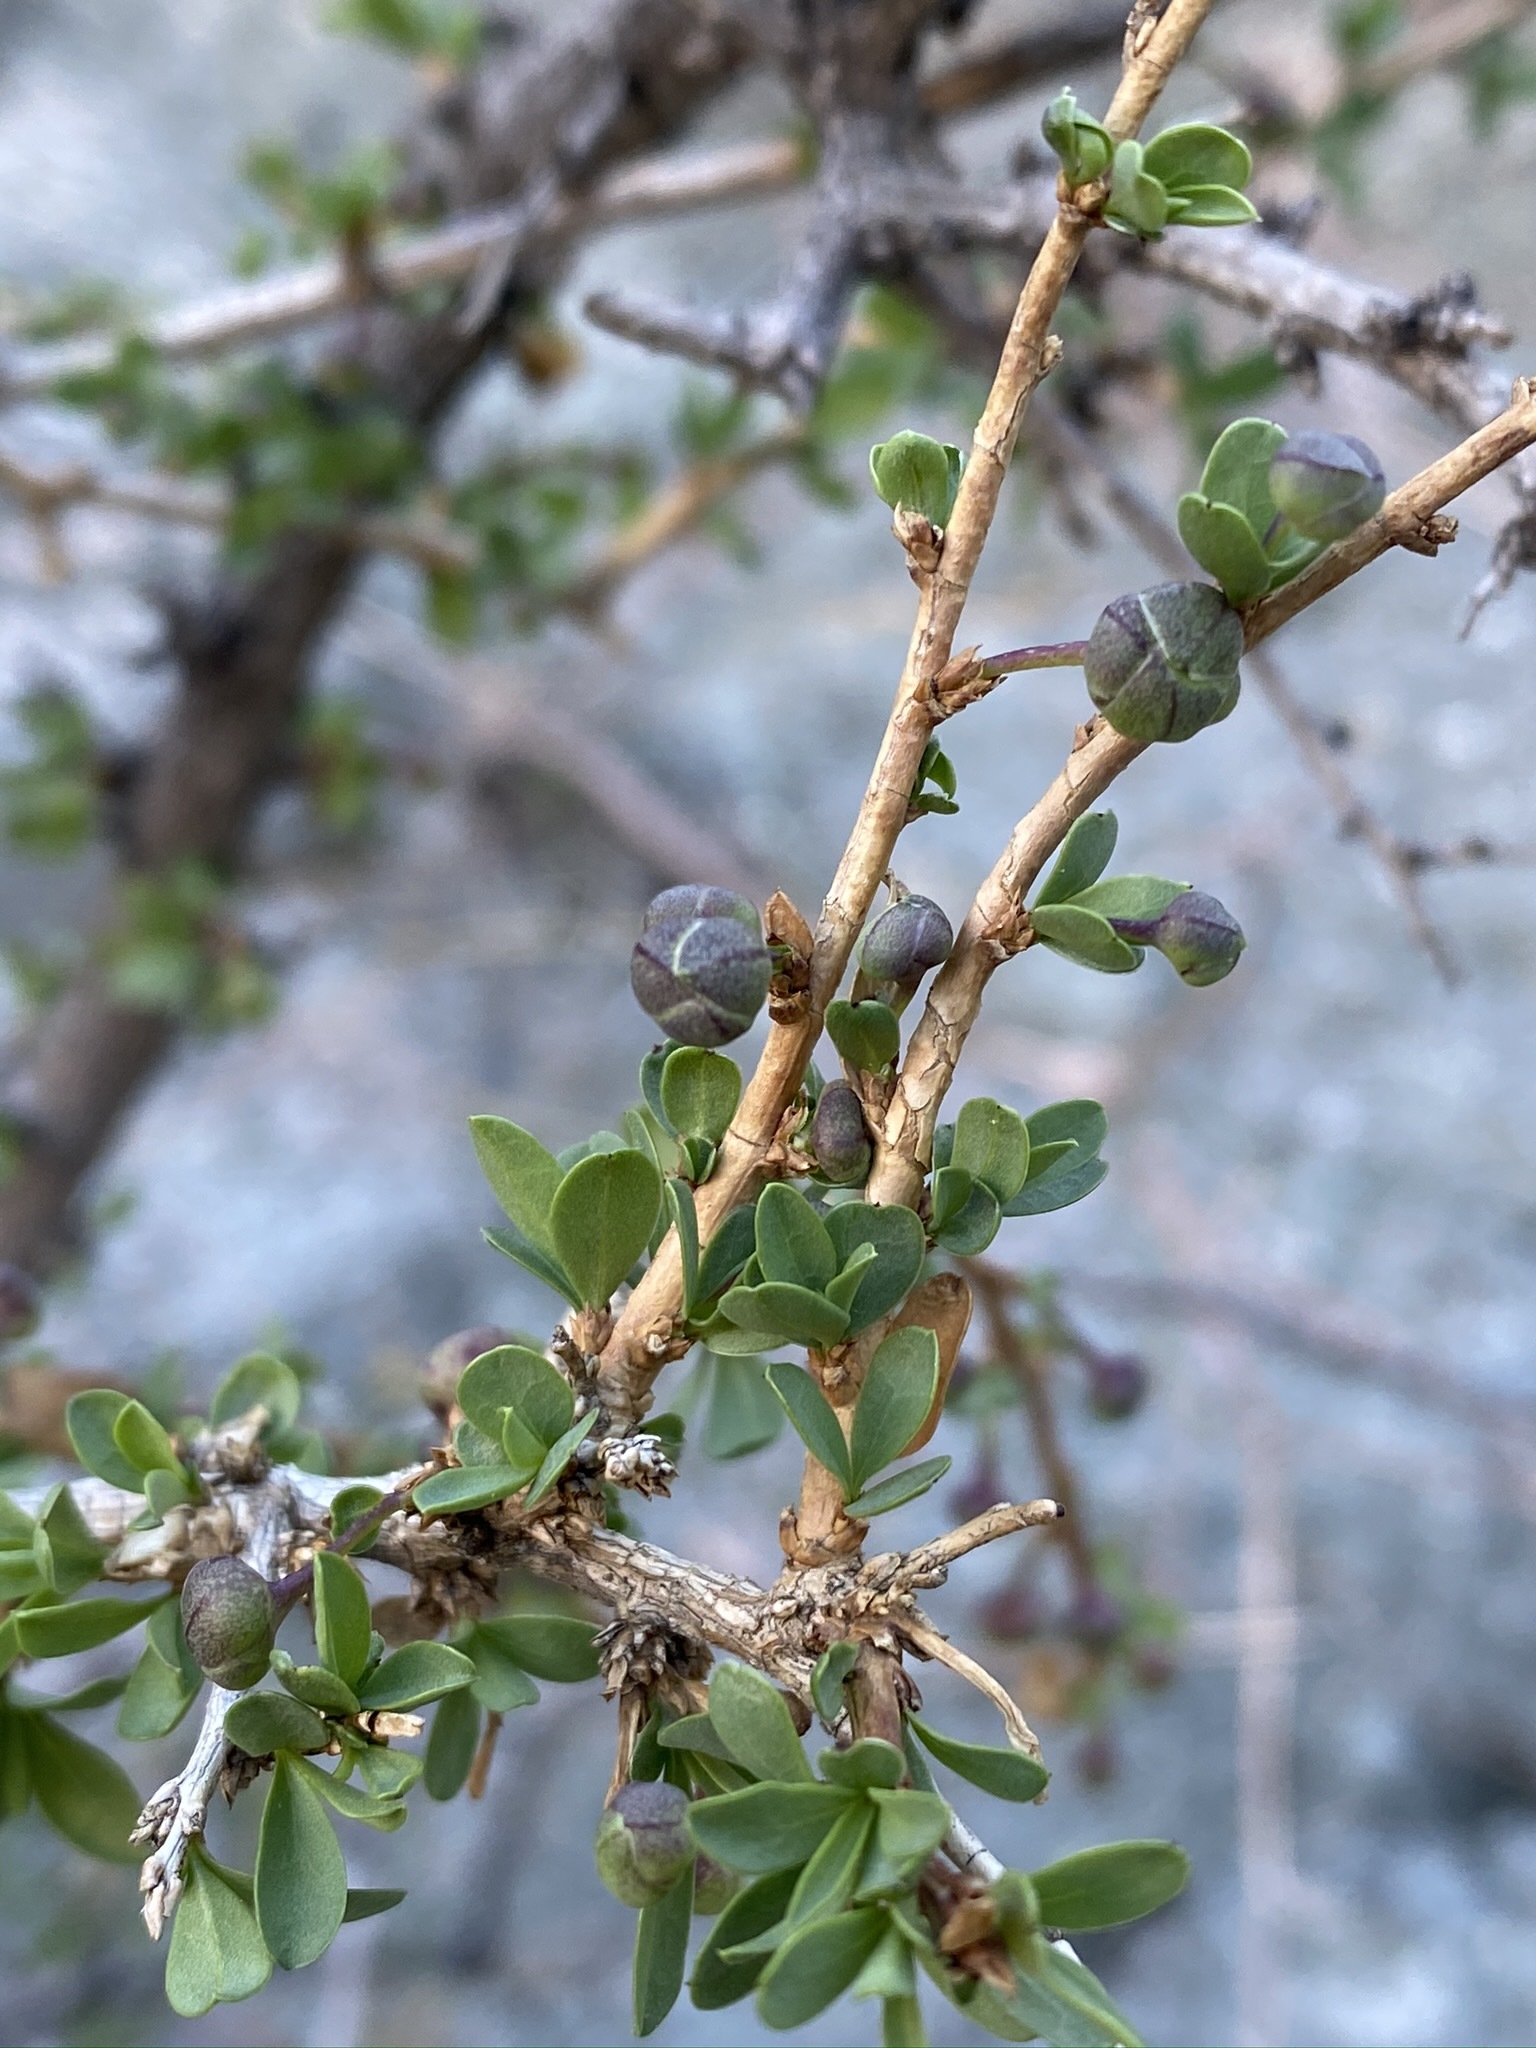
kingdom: Plantae
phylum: Tracheophyta
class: Magnoliopsida
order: Crossosomatales
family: Crossosomataceae
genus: Crossosoma
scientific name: Crossosoma bigelovii
